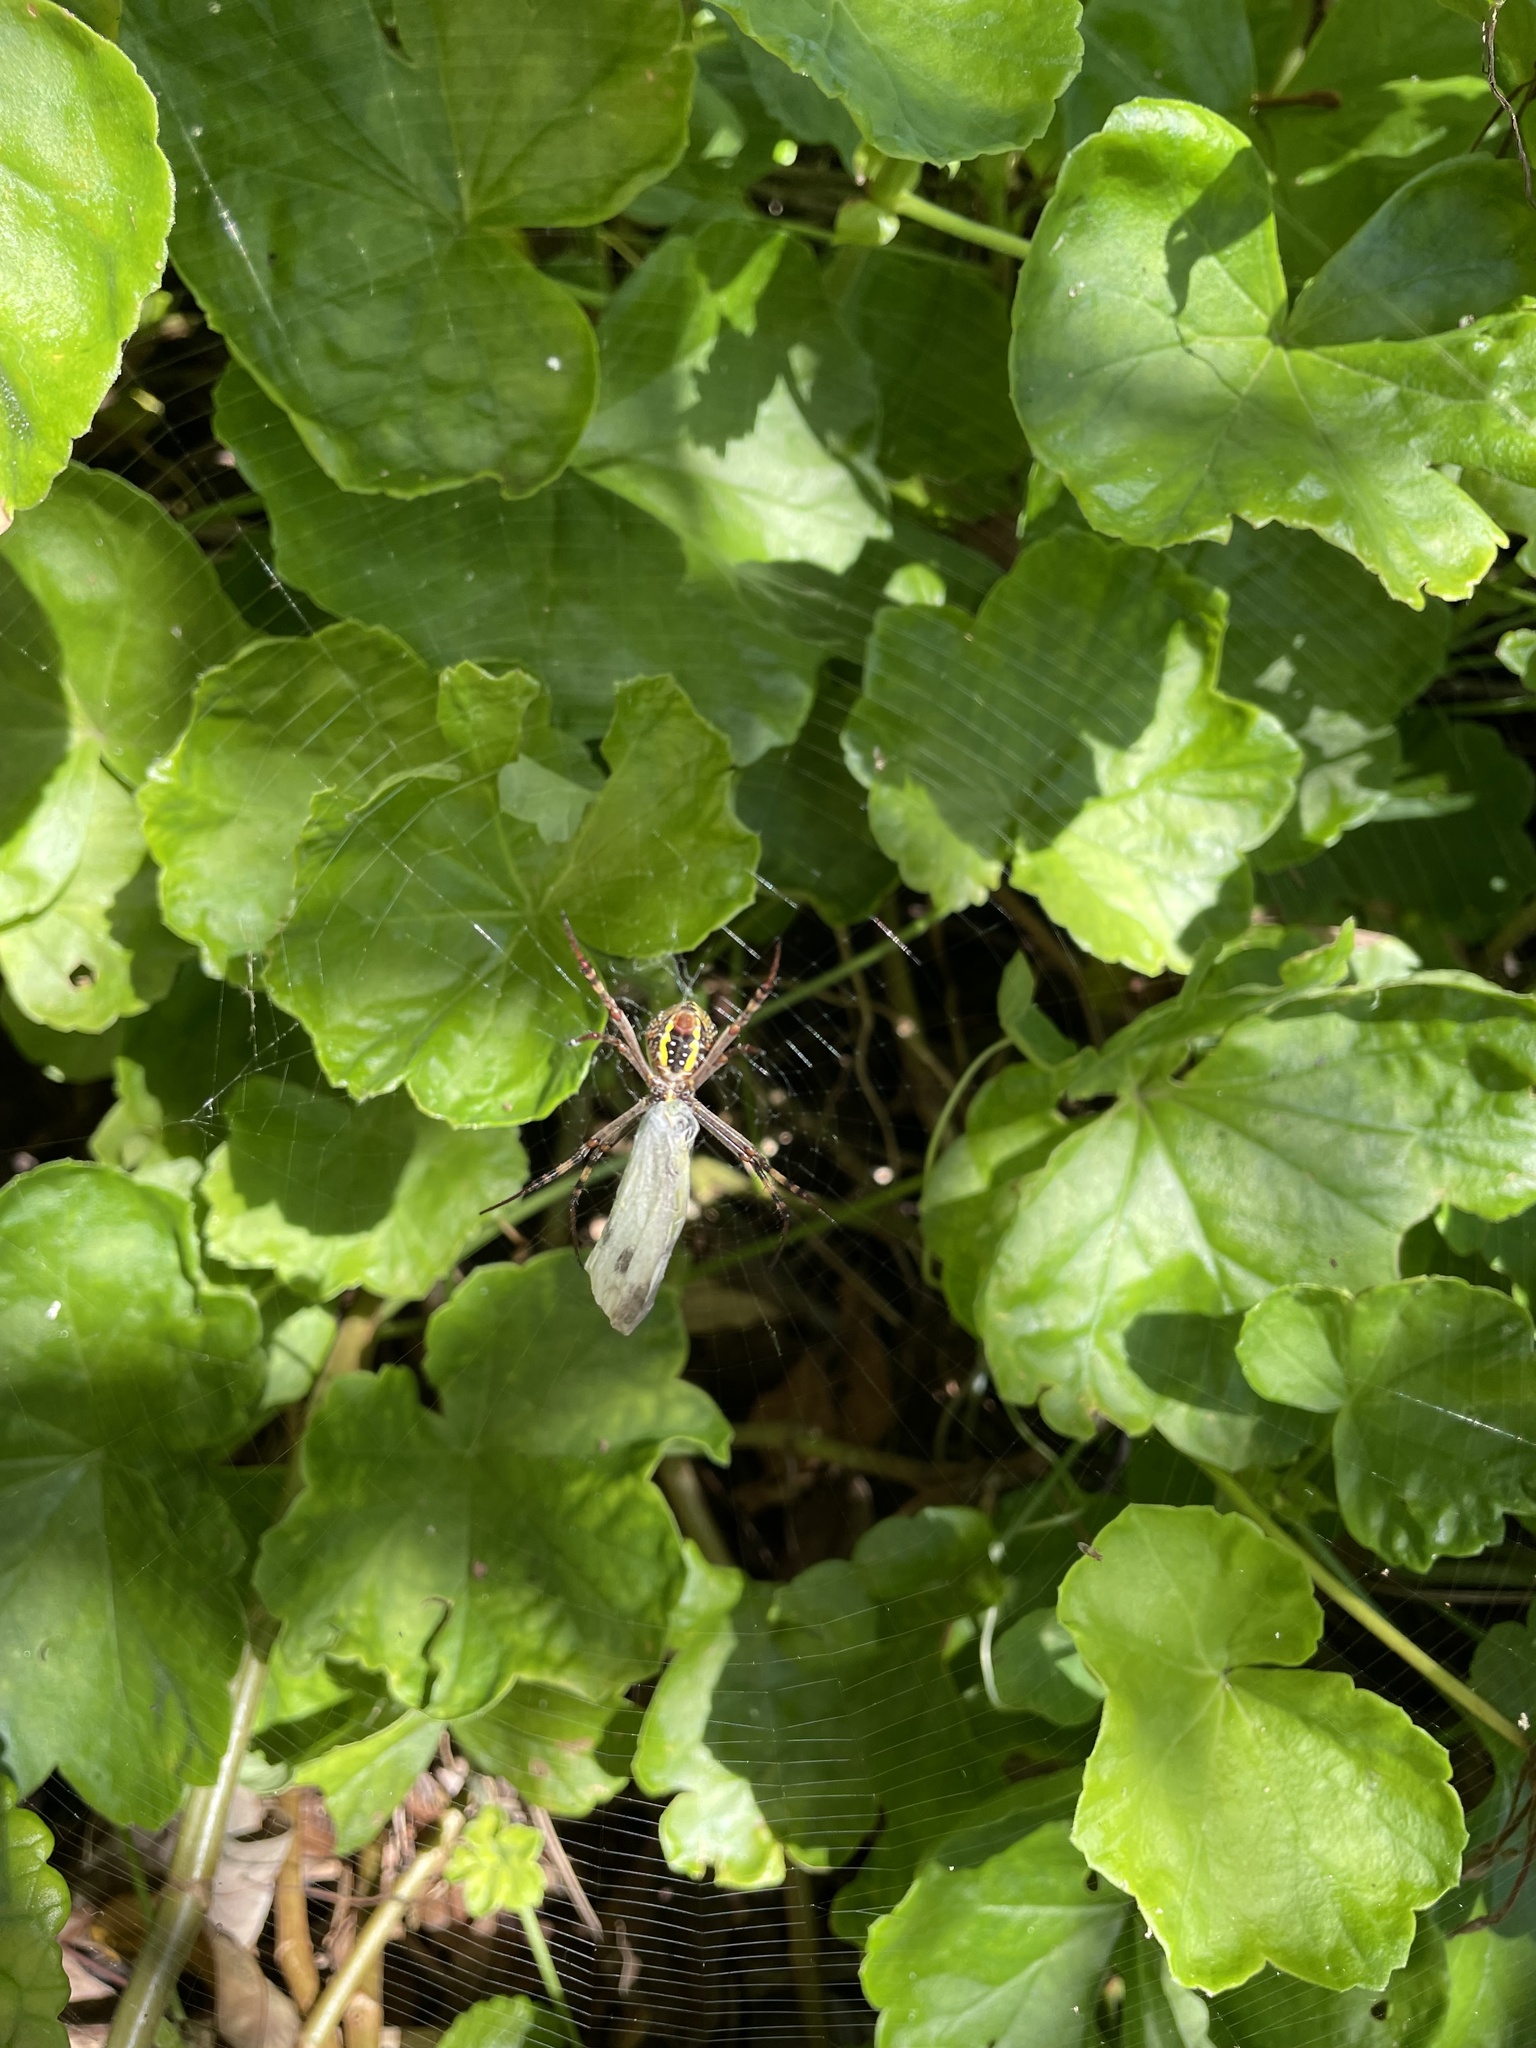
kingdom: Animalia
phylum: Arthropoda
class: Arachnida
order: Araneae
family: Araneidae
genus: Argiope
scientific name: Argiope keyserlingi
